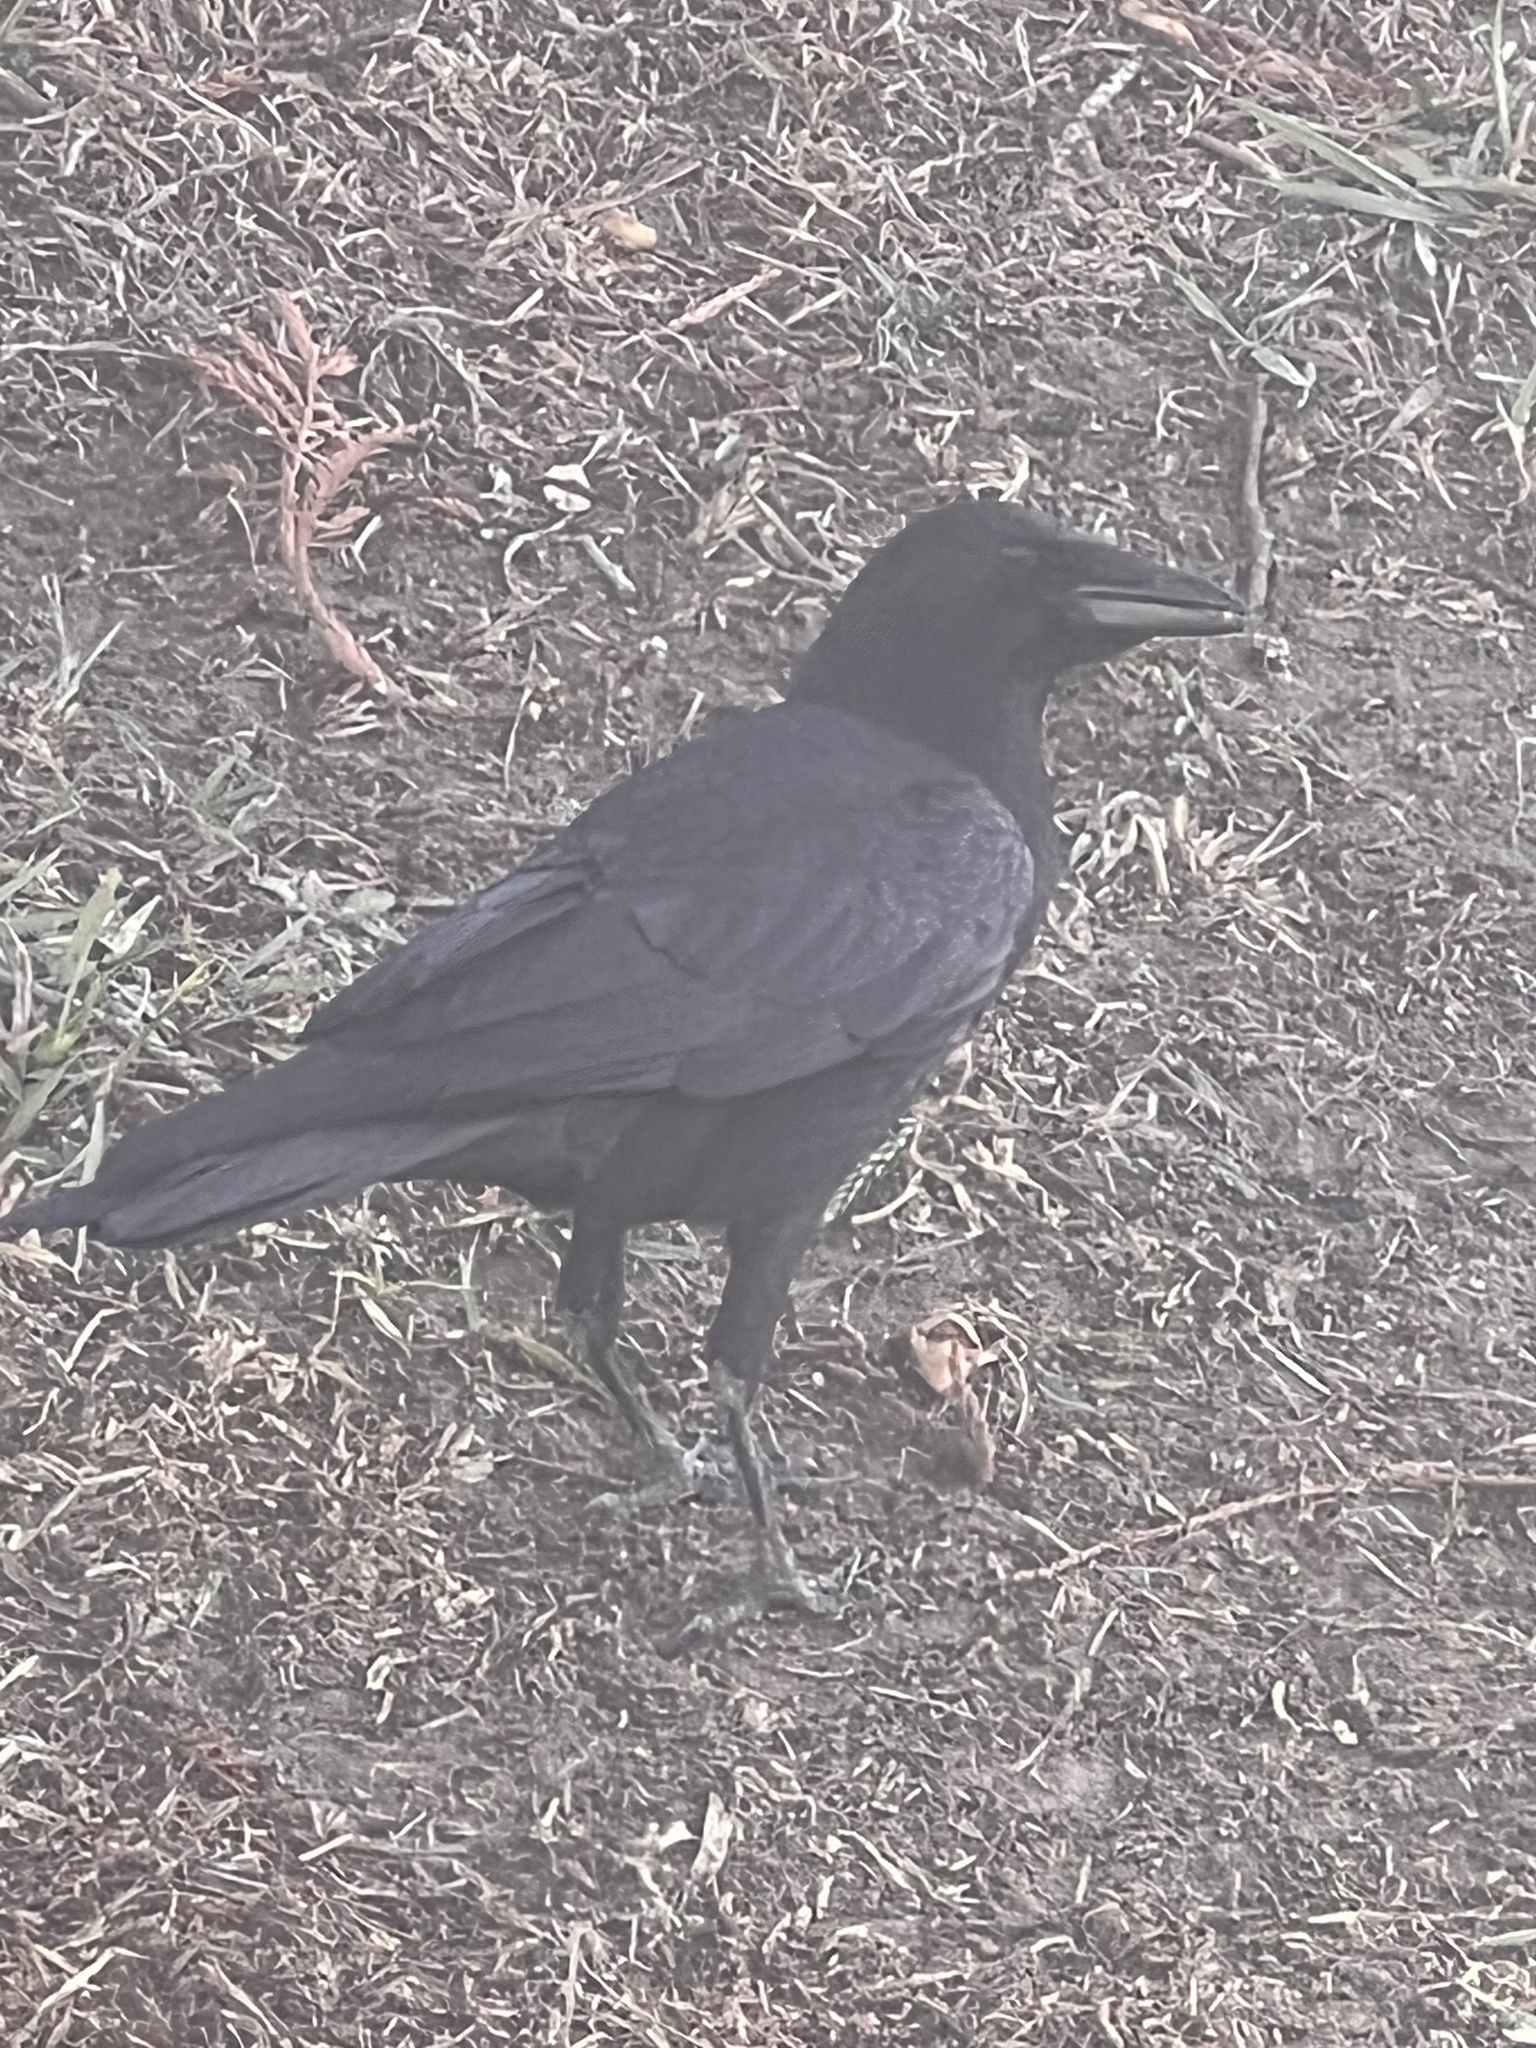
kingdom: Animalia
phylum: Chordata
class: Aves
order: Passeriformes
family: Corvidae
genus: Corvus
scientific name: Corvus brachyrhynchos
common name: American crow
